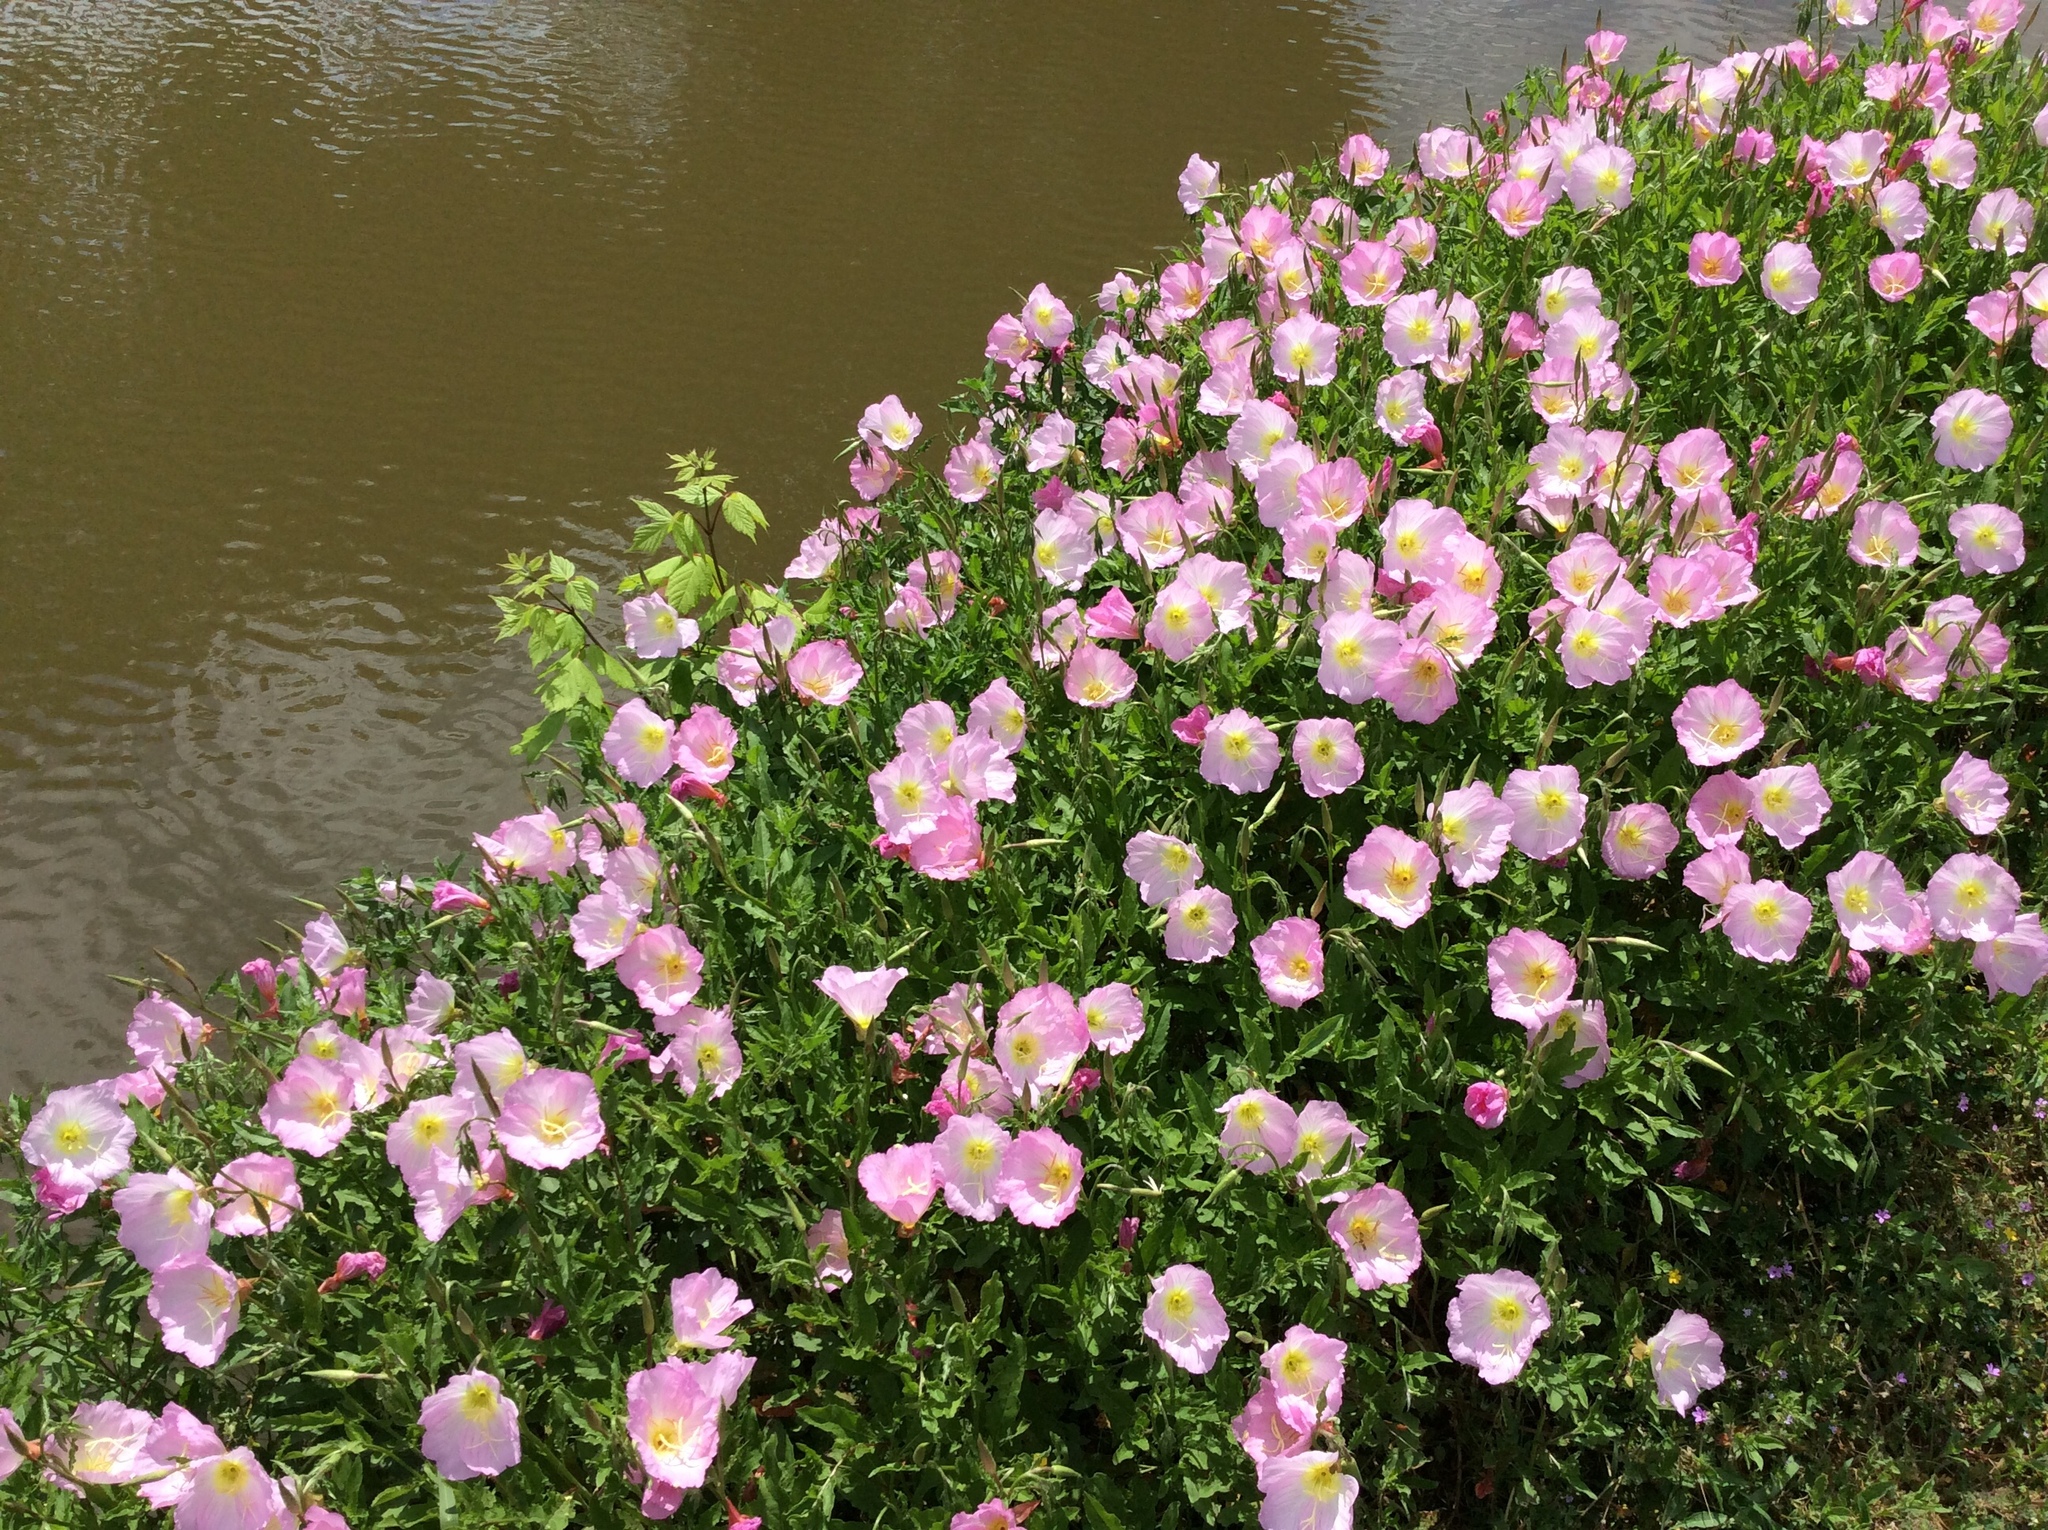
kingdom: Plantae
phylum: Tracheophyta
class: Magnoliopsida
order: Myrtales
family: Onagraceae
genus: Oenothera
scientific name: Oenothera speciosa
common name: White evening-primrose
